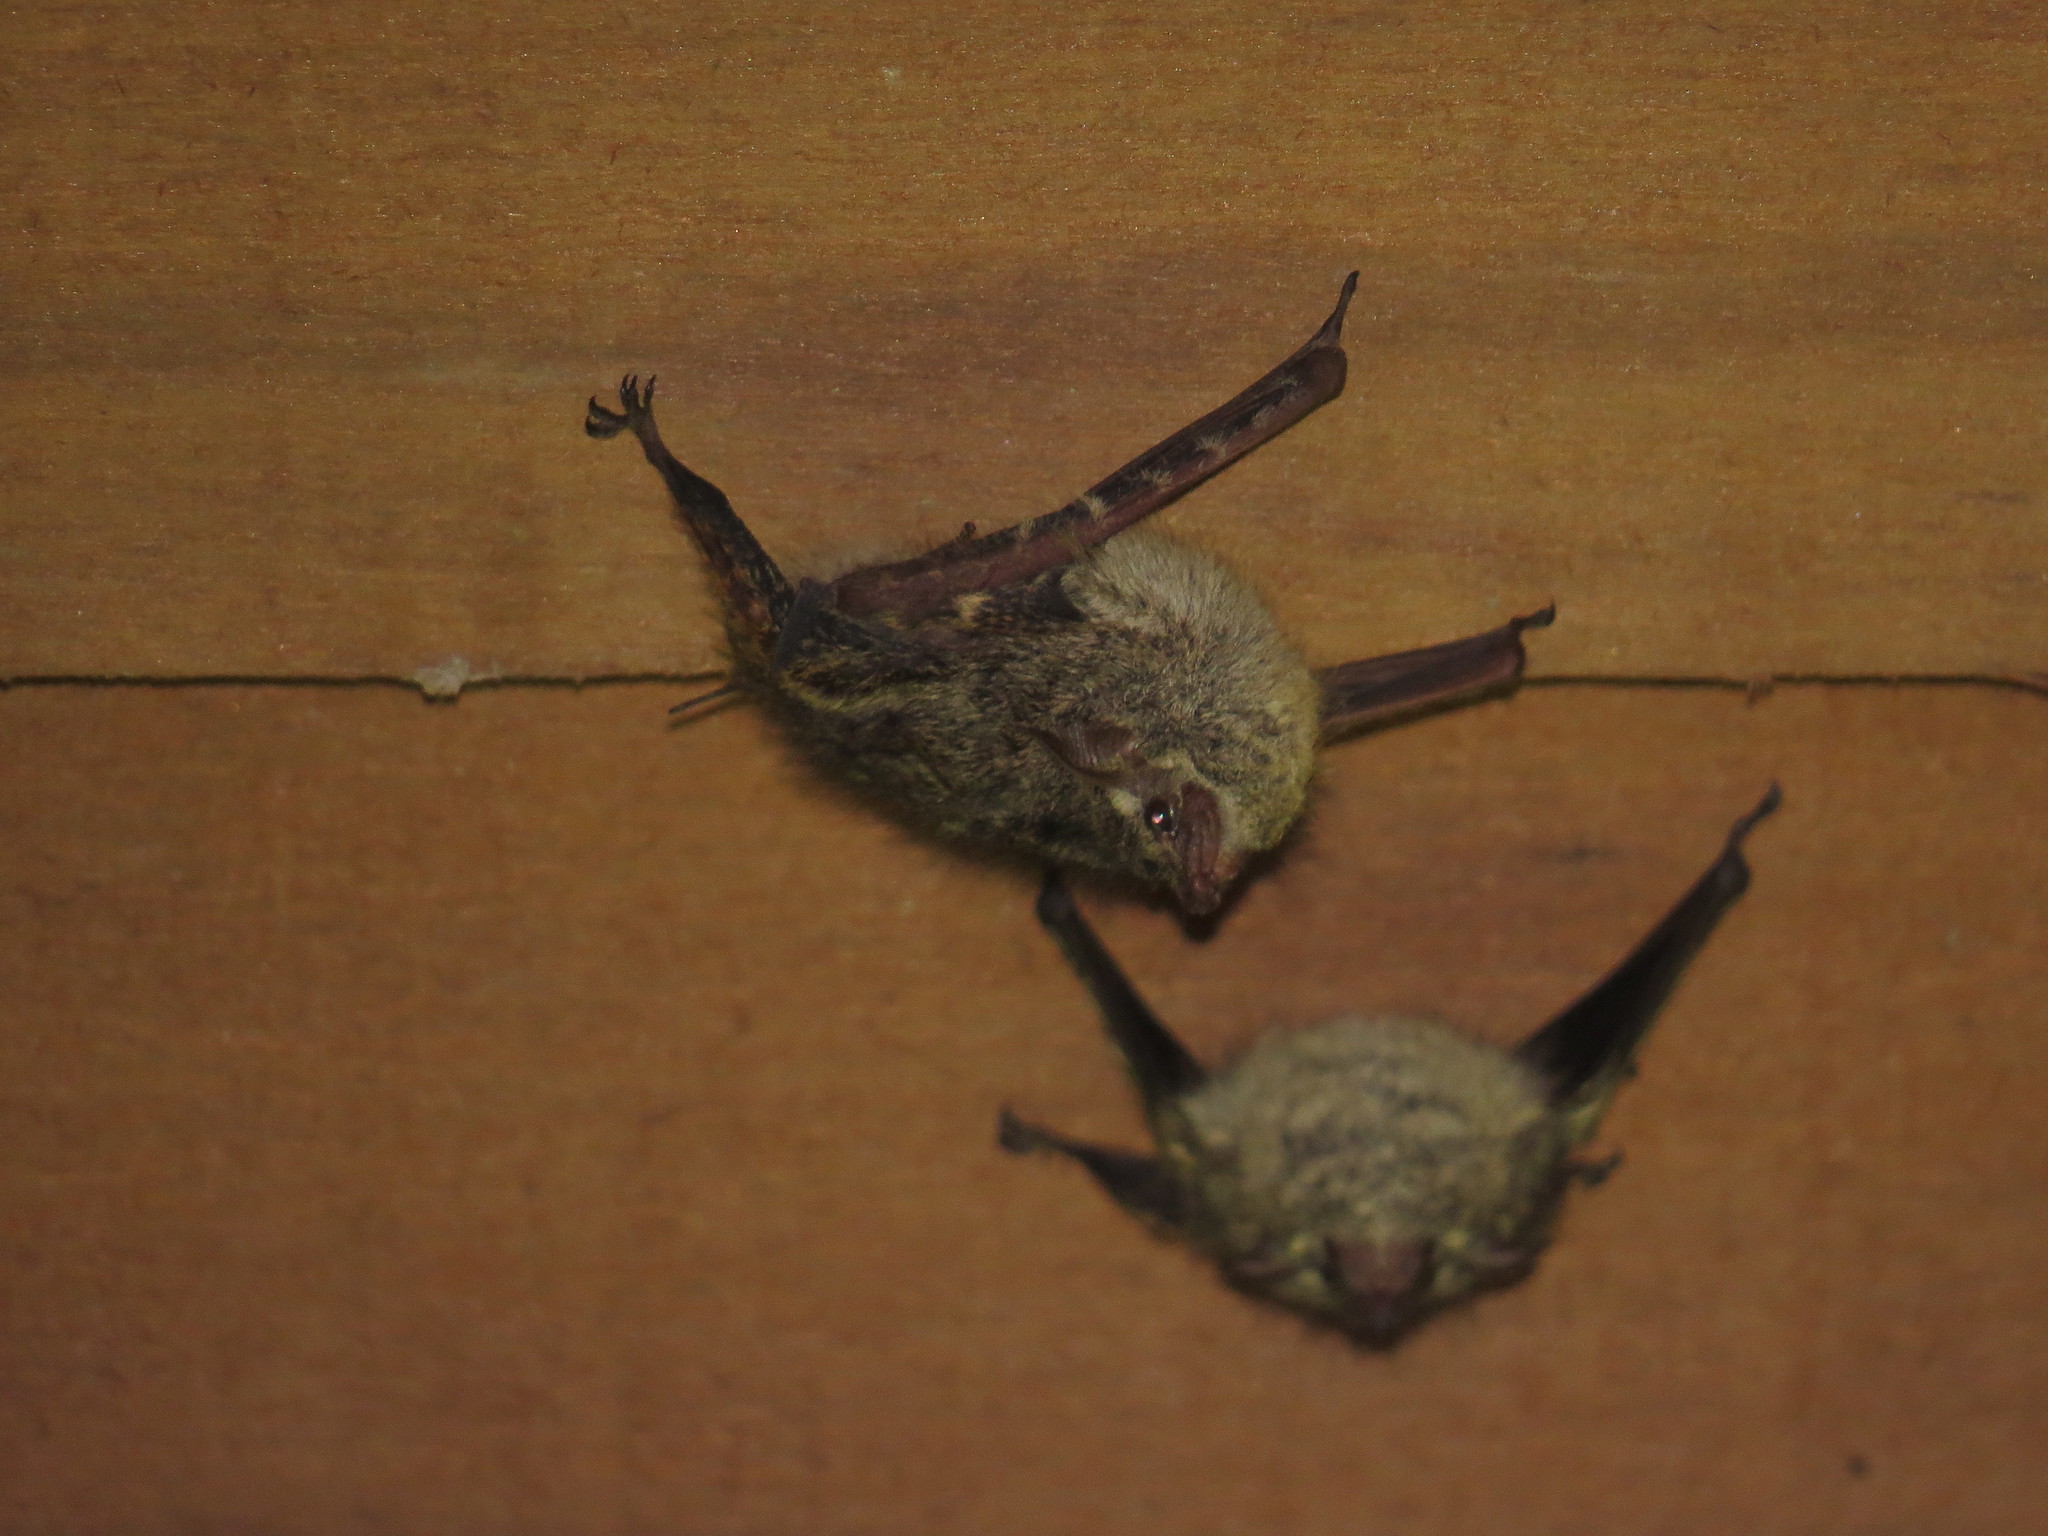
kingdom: Animalia
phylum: Chordata
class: Mammalia
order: Chiroptera
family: Emballonuridae
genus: Rhynchonycteris
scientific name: Rhynchonycteris naso
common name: Proboscis bat
